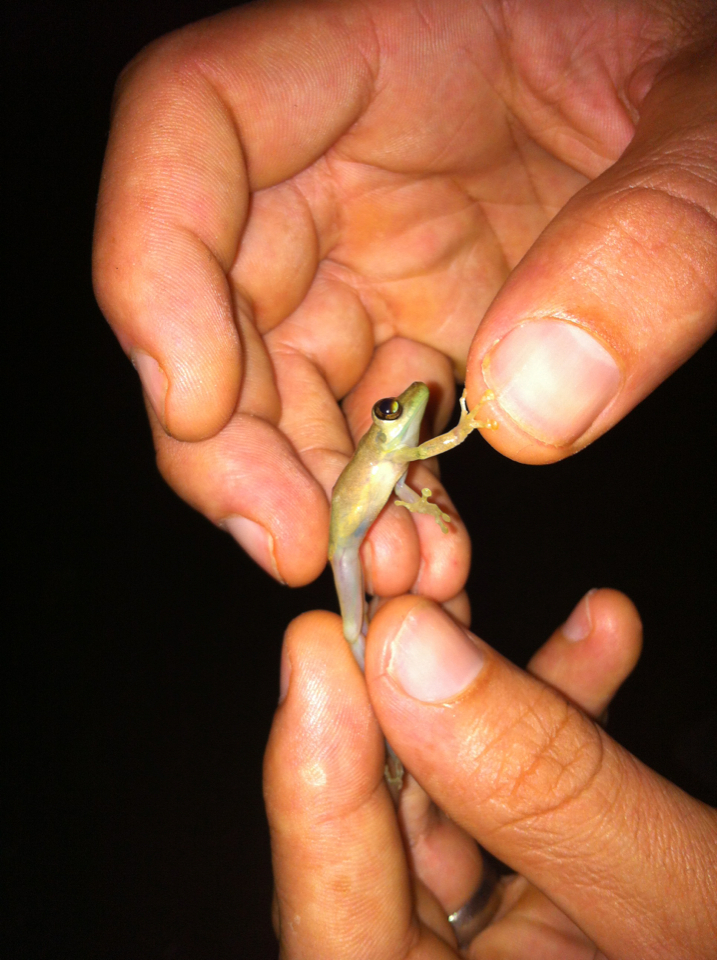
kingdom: Animalia
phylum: Chordata
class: Amphibia
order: Anura
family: Hylidae
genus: Scinax
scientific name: Scinax elaeochroa
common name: Sipurio snouted treefrog
